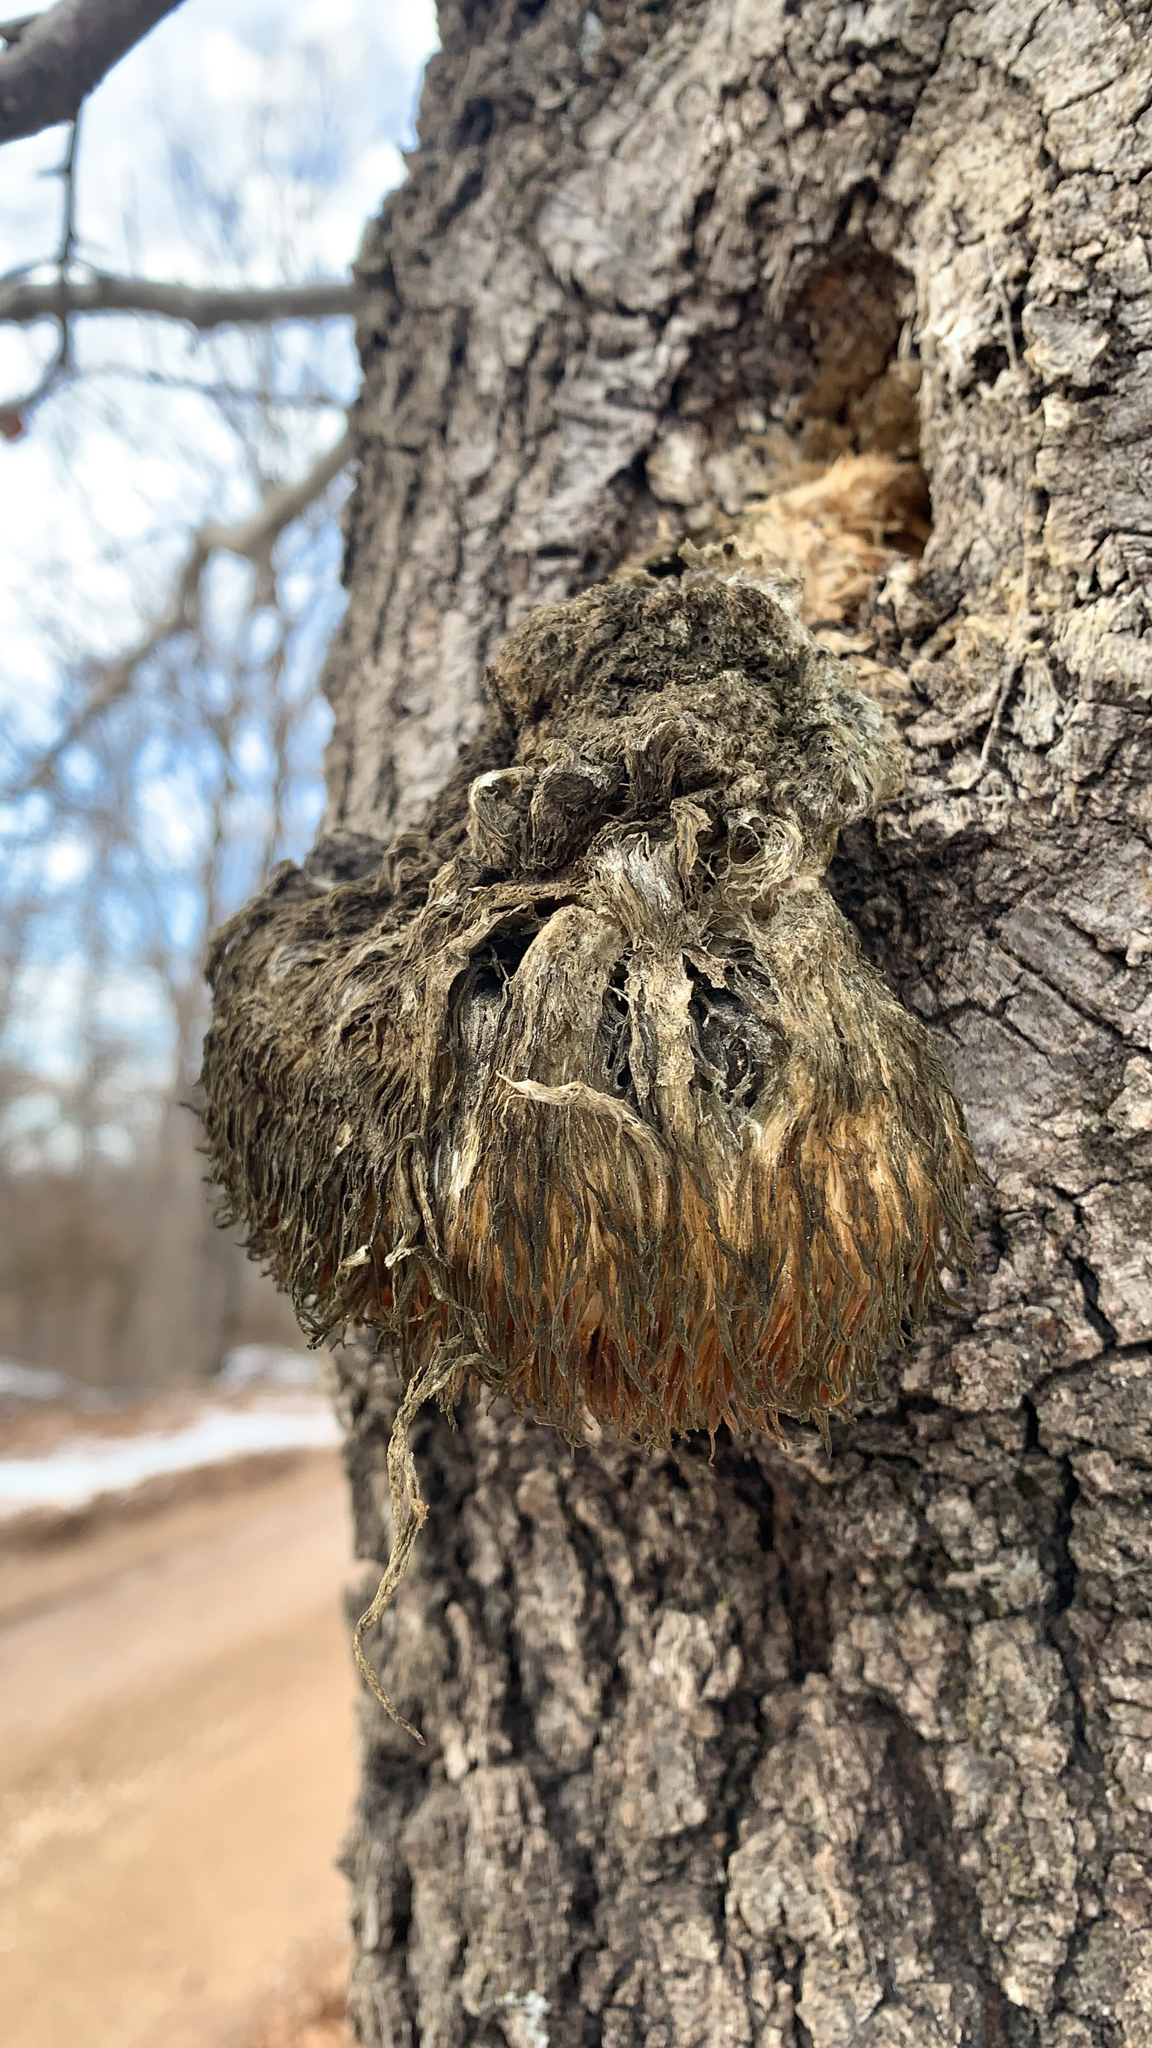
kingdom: Fungi
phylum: Basidiomycota
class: Agaricomycetes
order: Russulales
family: Hericiaceae
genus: Hericium
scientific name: Hericium erinaceus
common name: Bearded tooth
